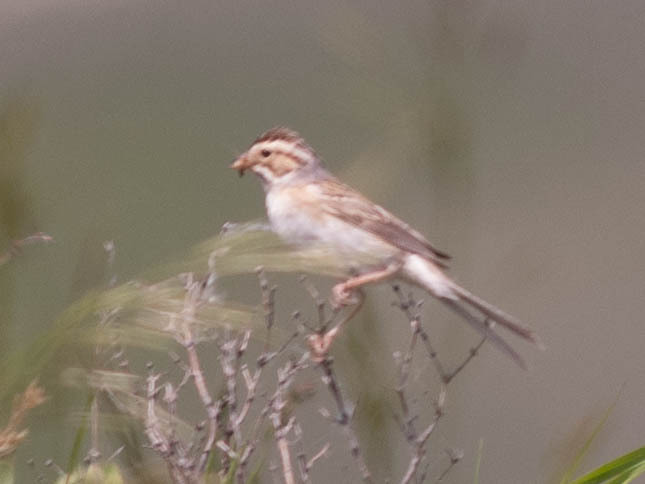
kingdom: Animalia
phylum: Chordata
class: Aves
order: Passeriformes
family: Passerellidae
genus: Spizella
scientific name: Spizella pallida
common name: Clay-colored sparrow
